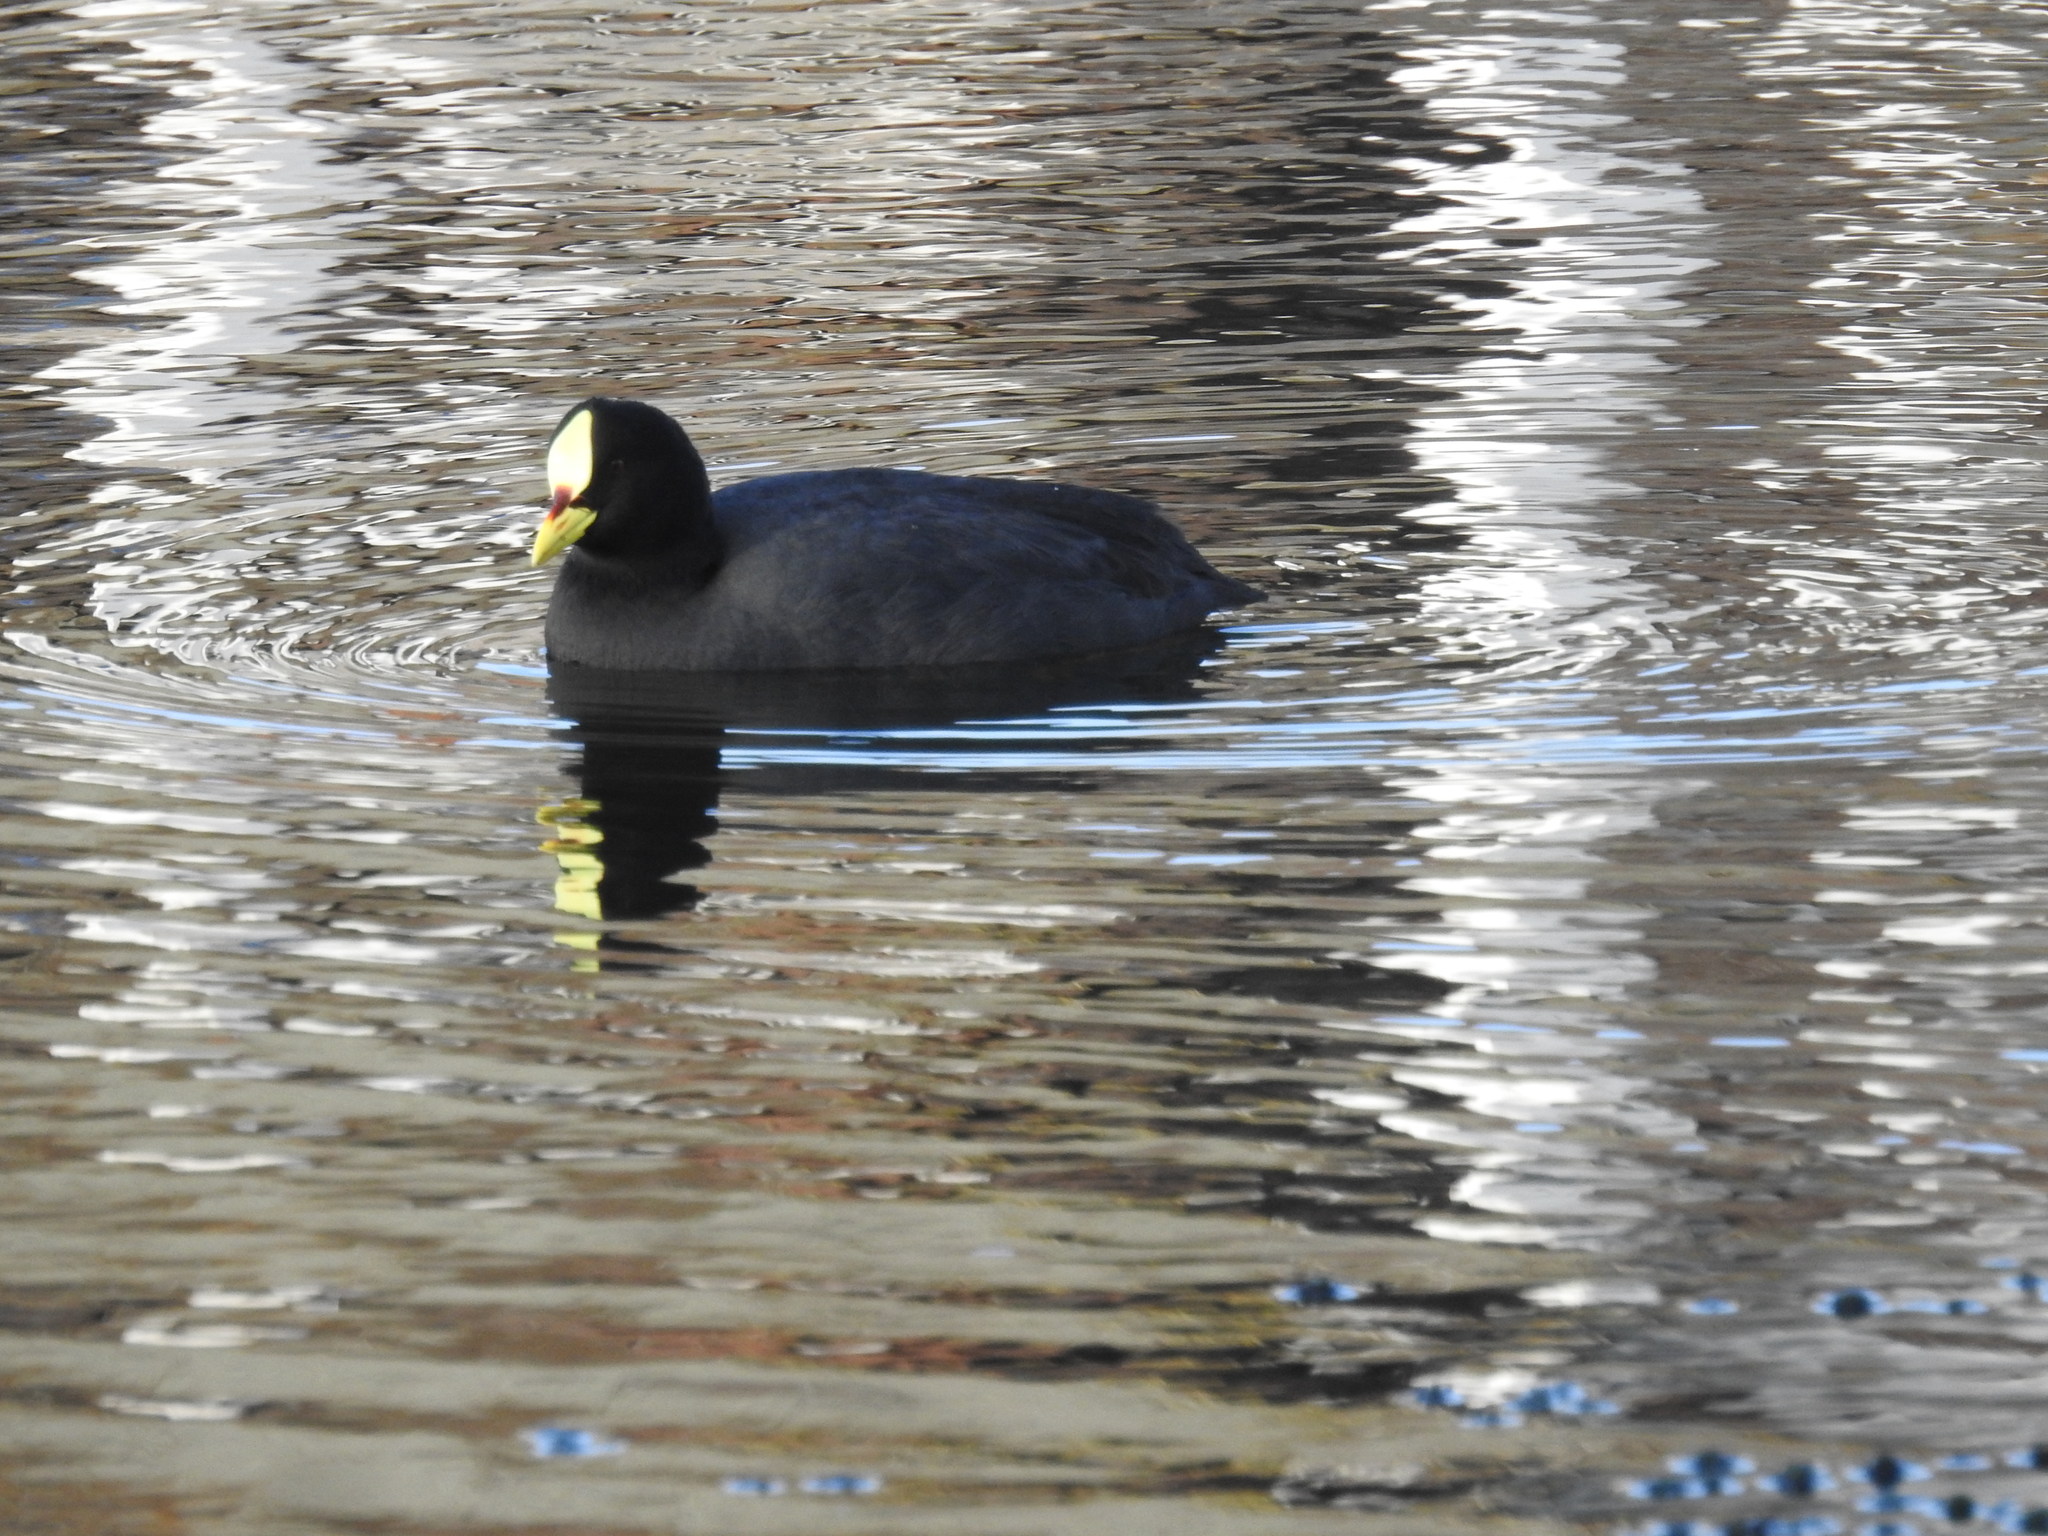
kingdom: Animalia
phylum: Chordata
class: Aves
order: Gruiformes
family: Rallidae
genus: Fulica
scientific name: Fulica armillata
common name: Red-gartered coot
